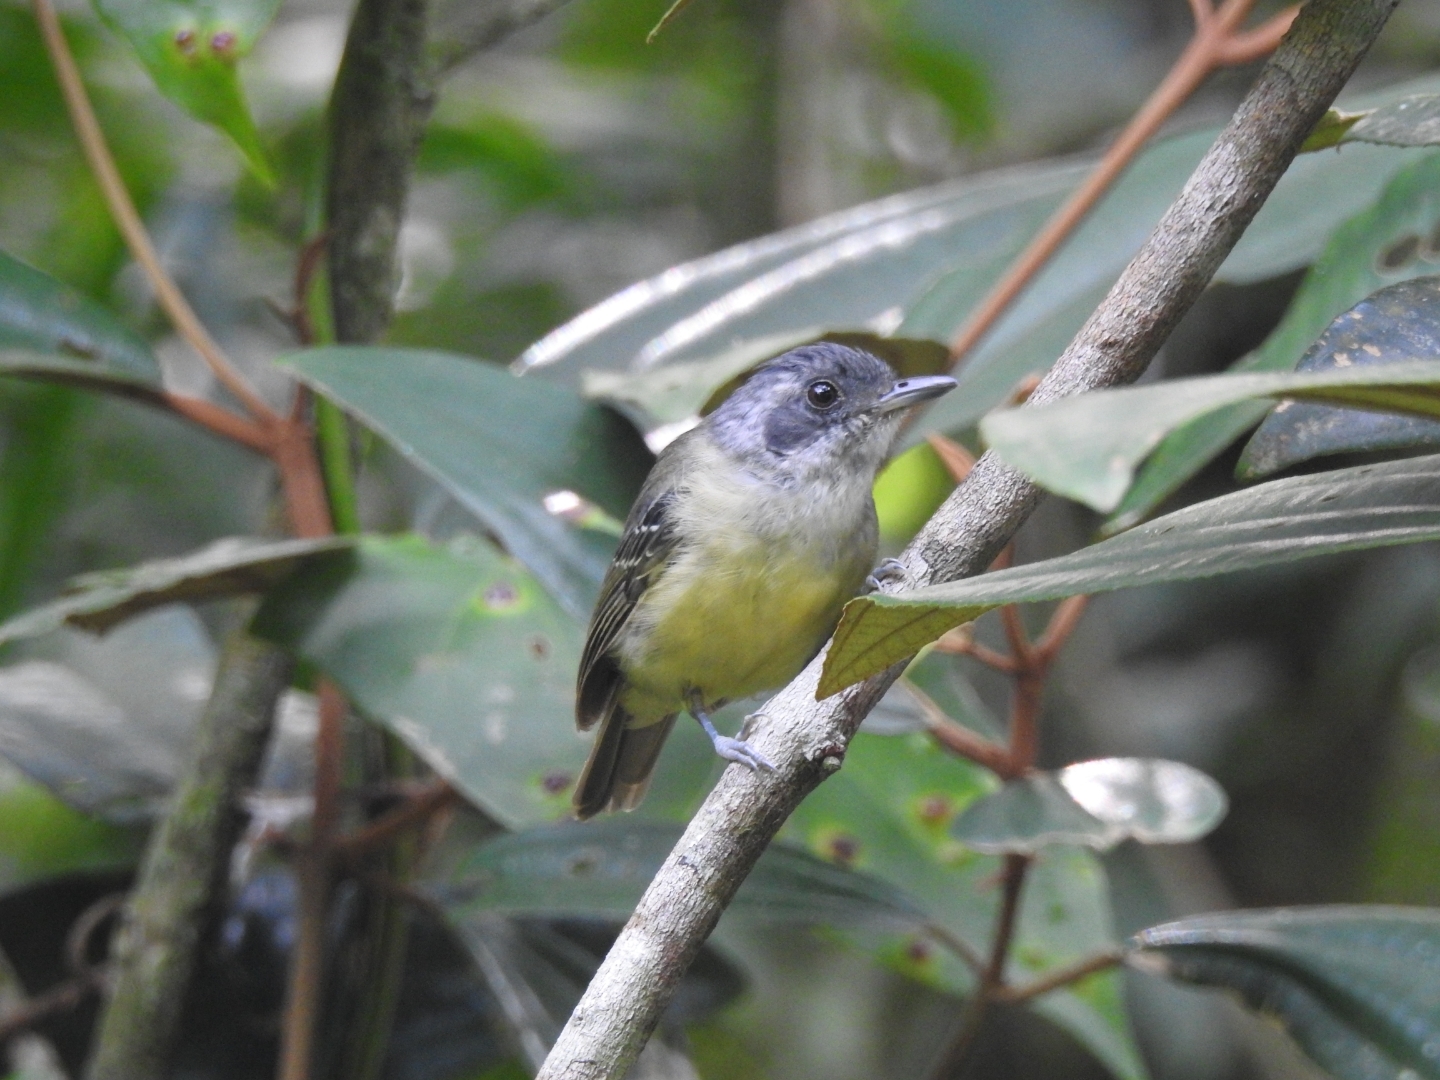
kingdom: Animalia
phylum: Chordata
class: Aves
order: Passeriformes
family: Thamnophilidae
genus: Dysithamnus
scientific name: Dysithamnus mentalis
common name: Plain antvireo
